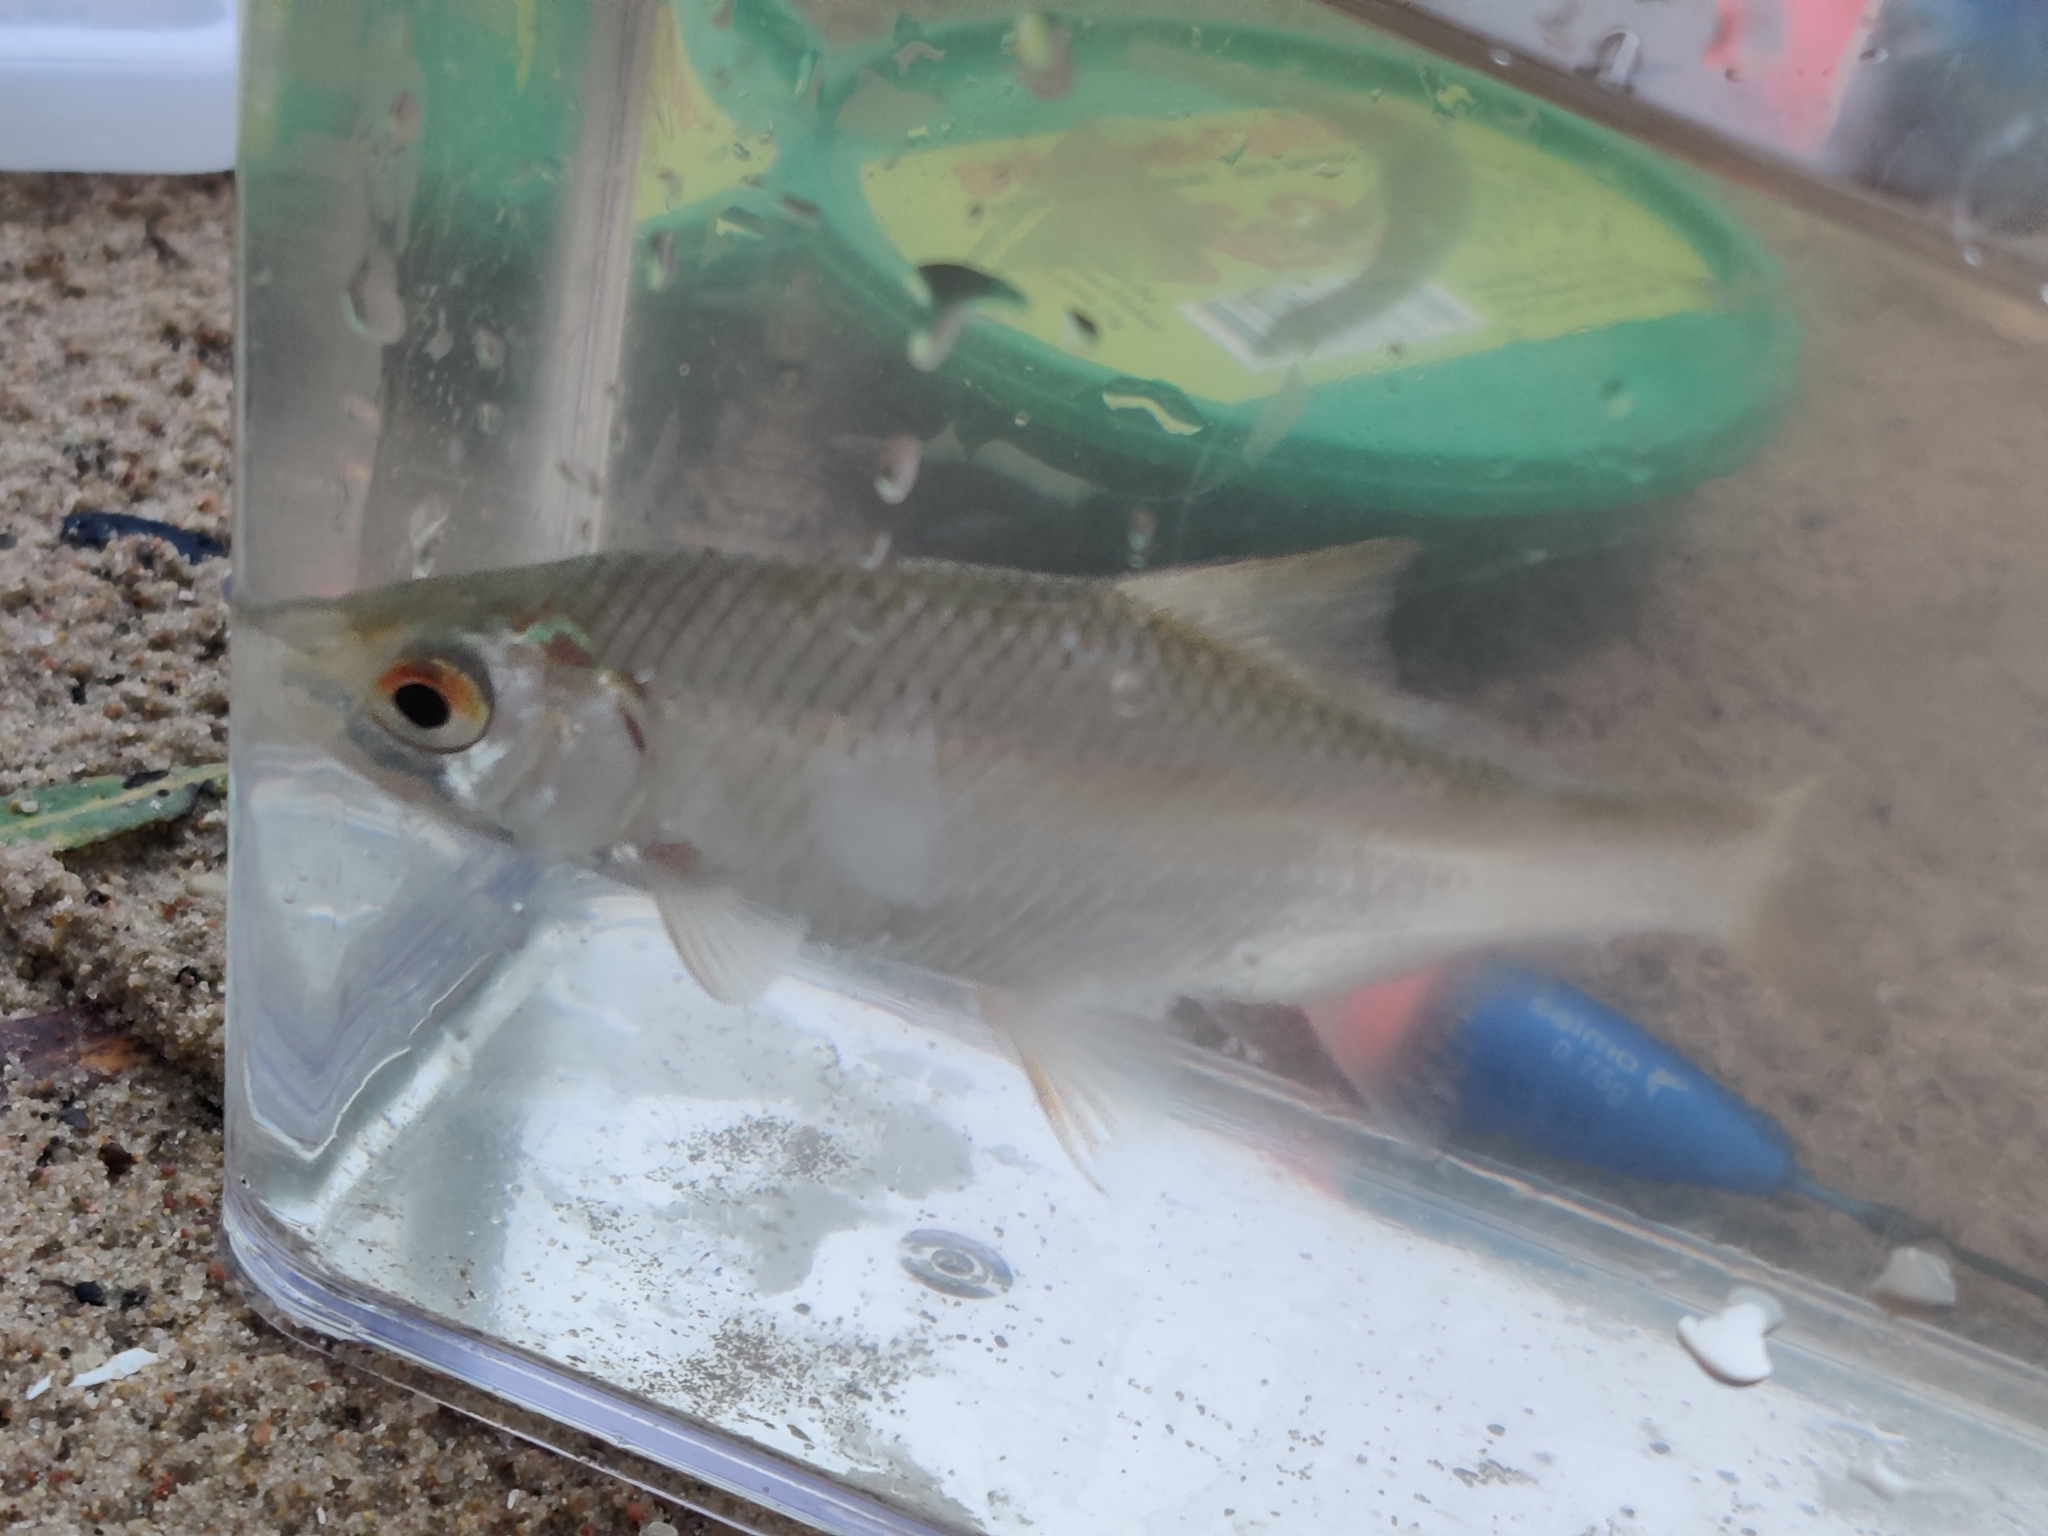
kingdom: Animalia
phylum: Chordata
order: Cypriniformes
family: Cyprinidae
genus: Rutilus
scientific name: Rutilus rutilus
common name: Roach
